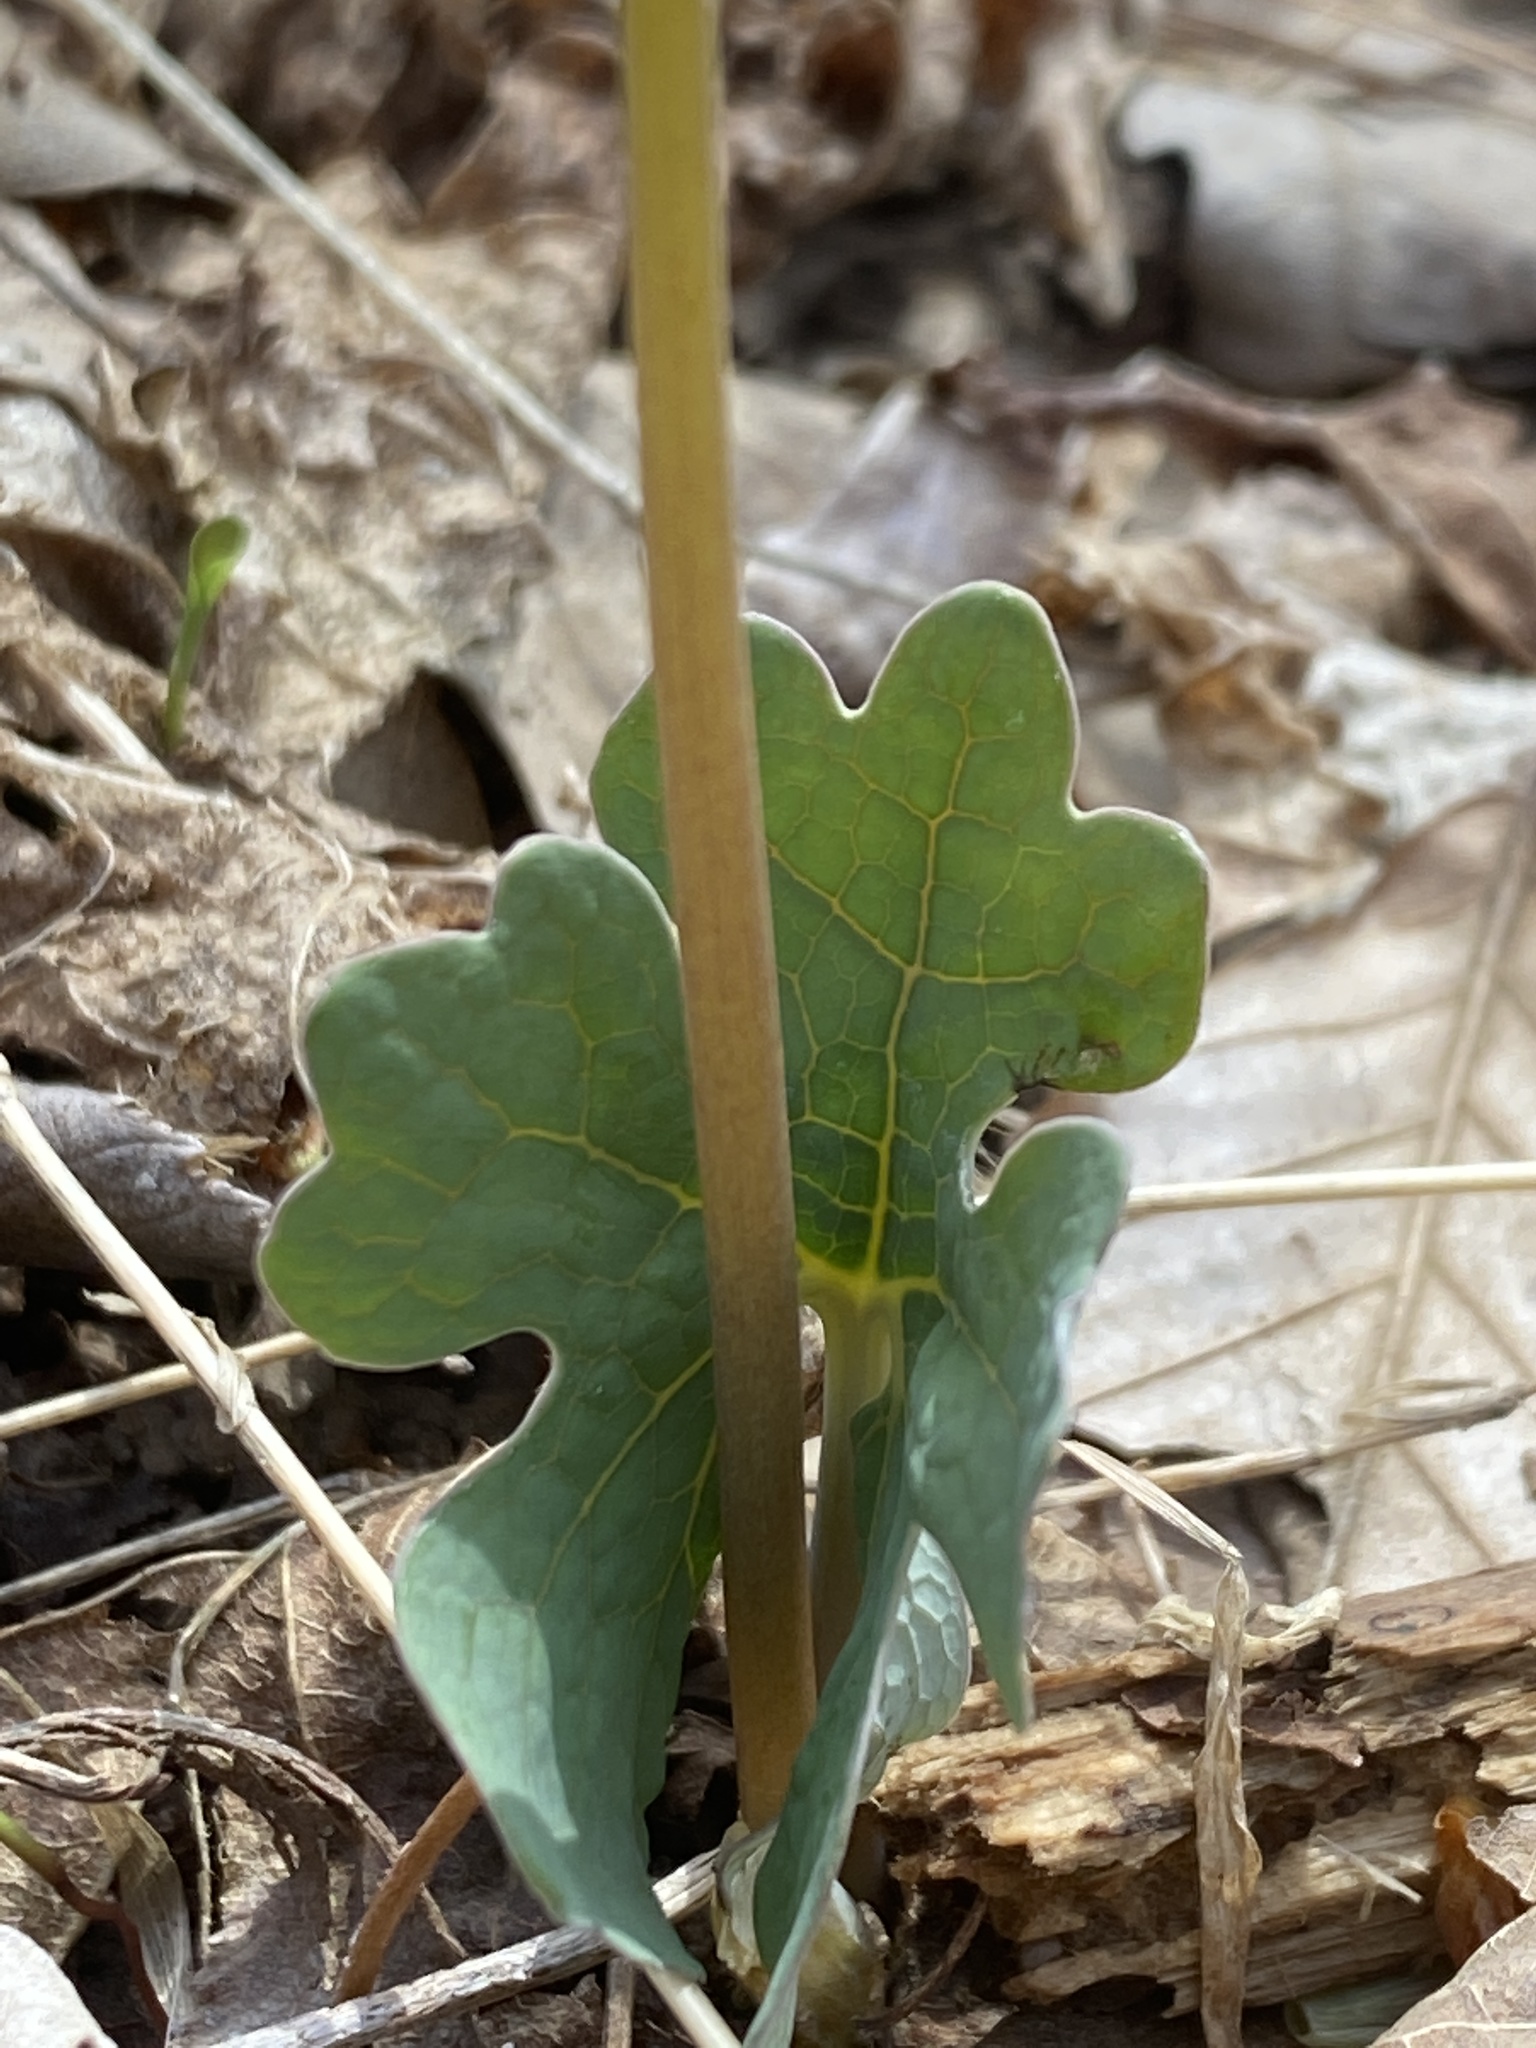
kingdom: Plantae
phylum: Tracheophyta
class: Magnoliopsida
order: Ranunculales
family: Papaveraceae
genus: Sanguinaria
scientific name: Sanguinaria canadensis
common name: Bloodroot
